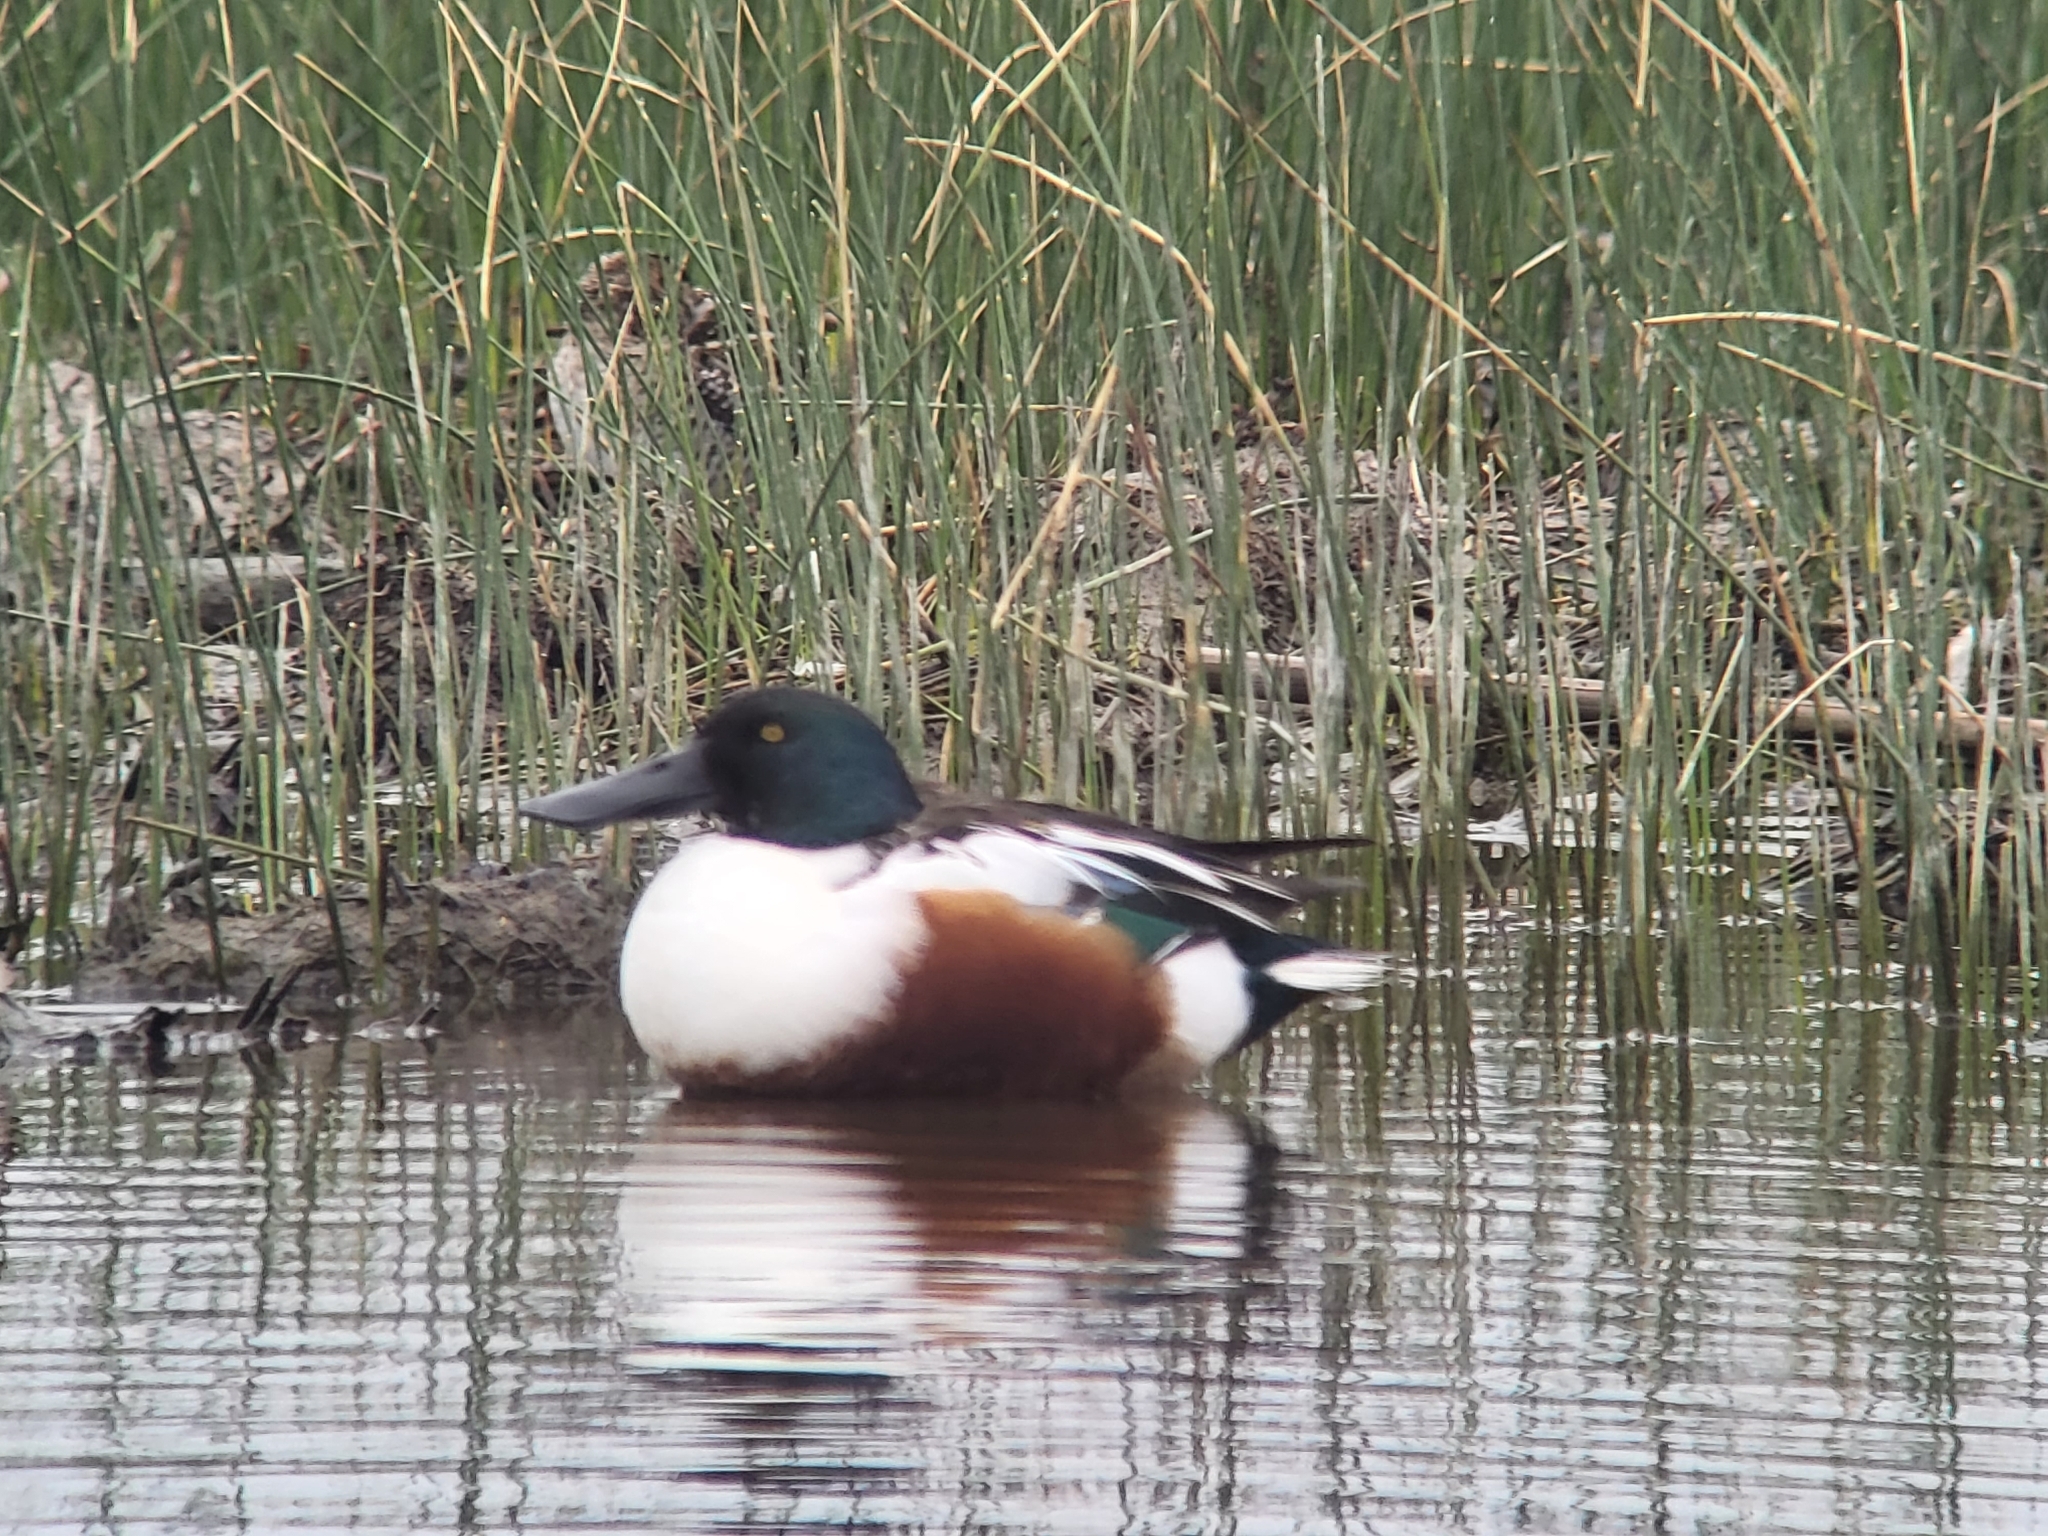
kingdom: Animalia
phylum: Chordata
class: Aves
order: Anseriformes
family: Anatidae
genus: Spatula
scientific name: Spatula clypeata
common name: Northern shoveler
